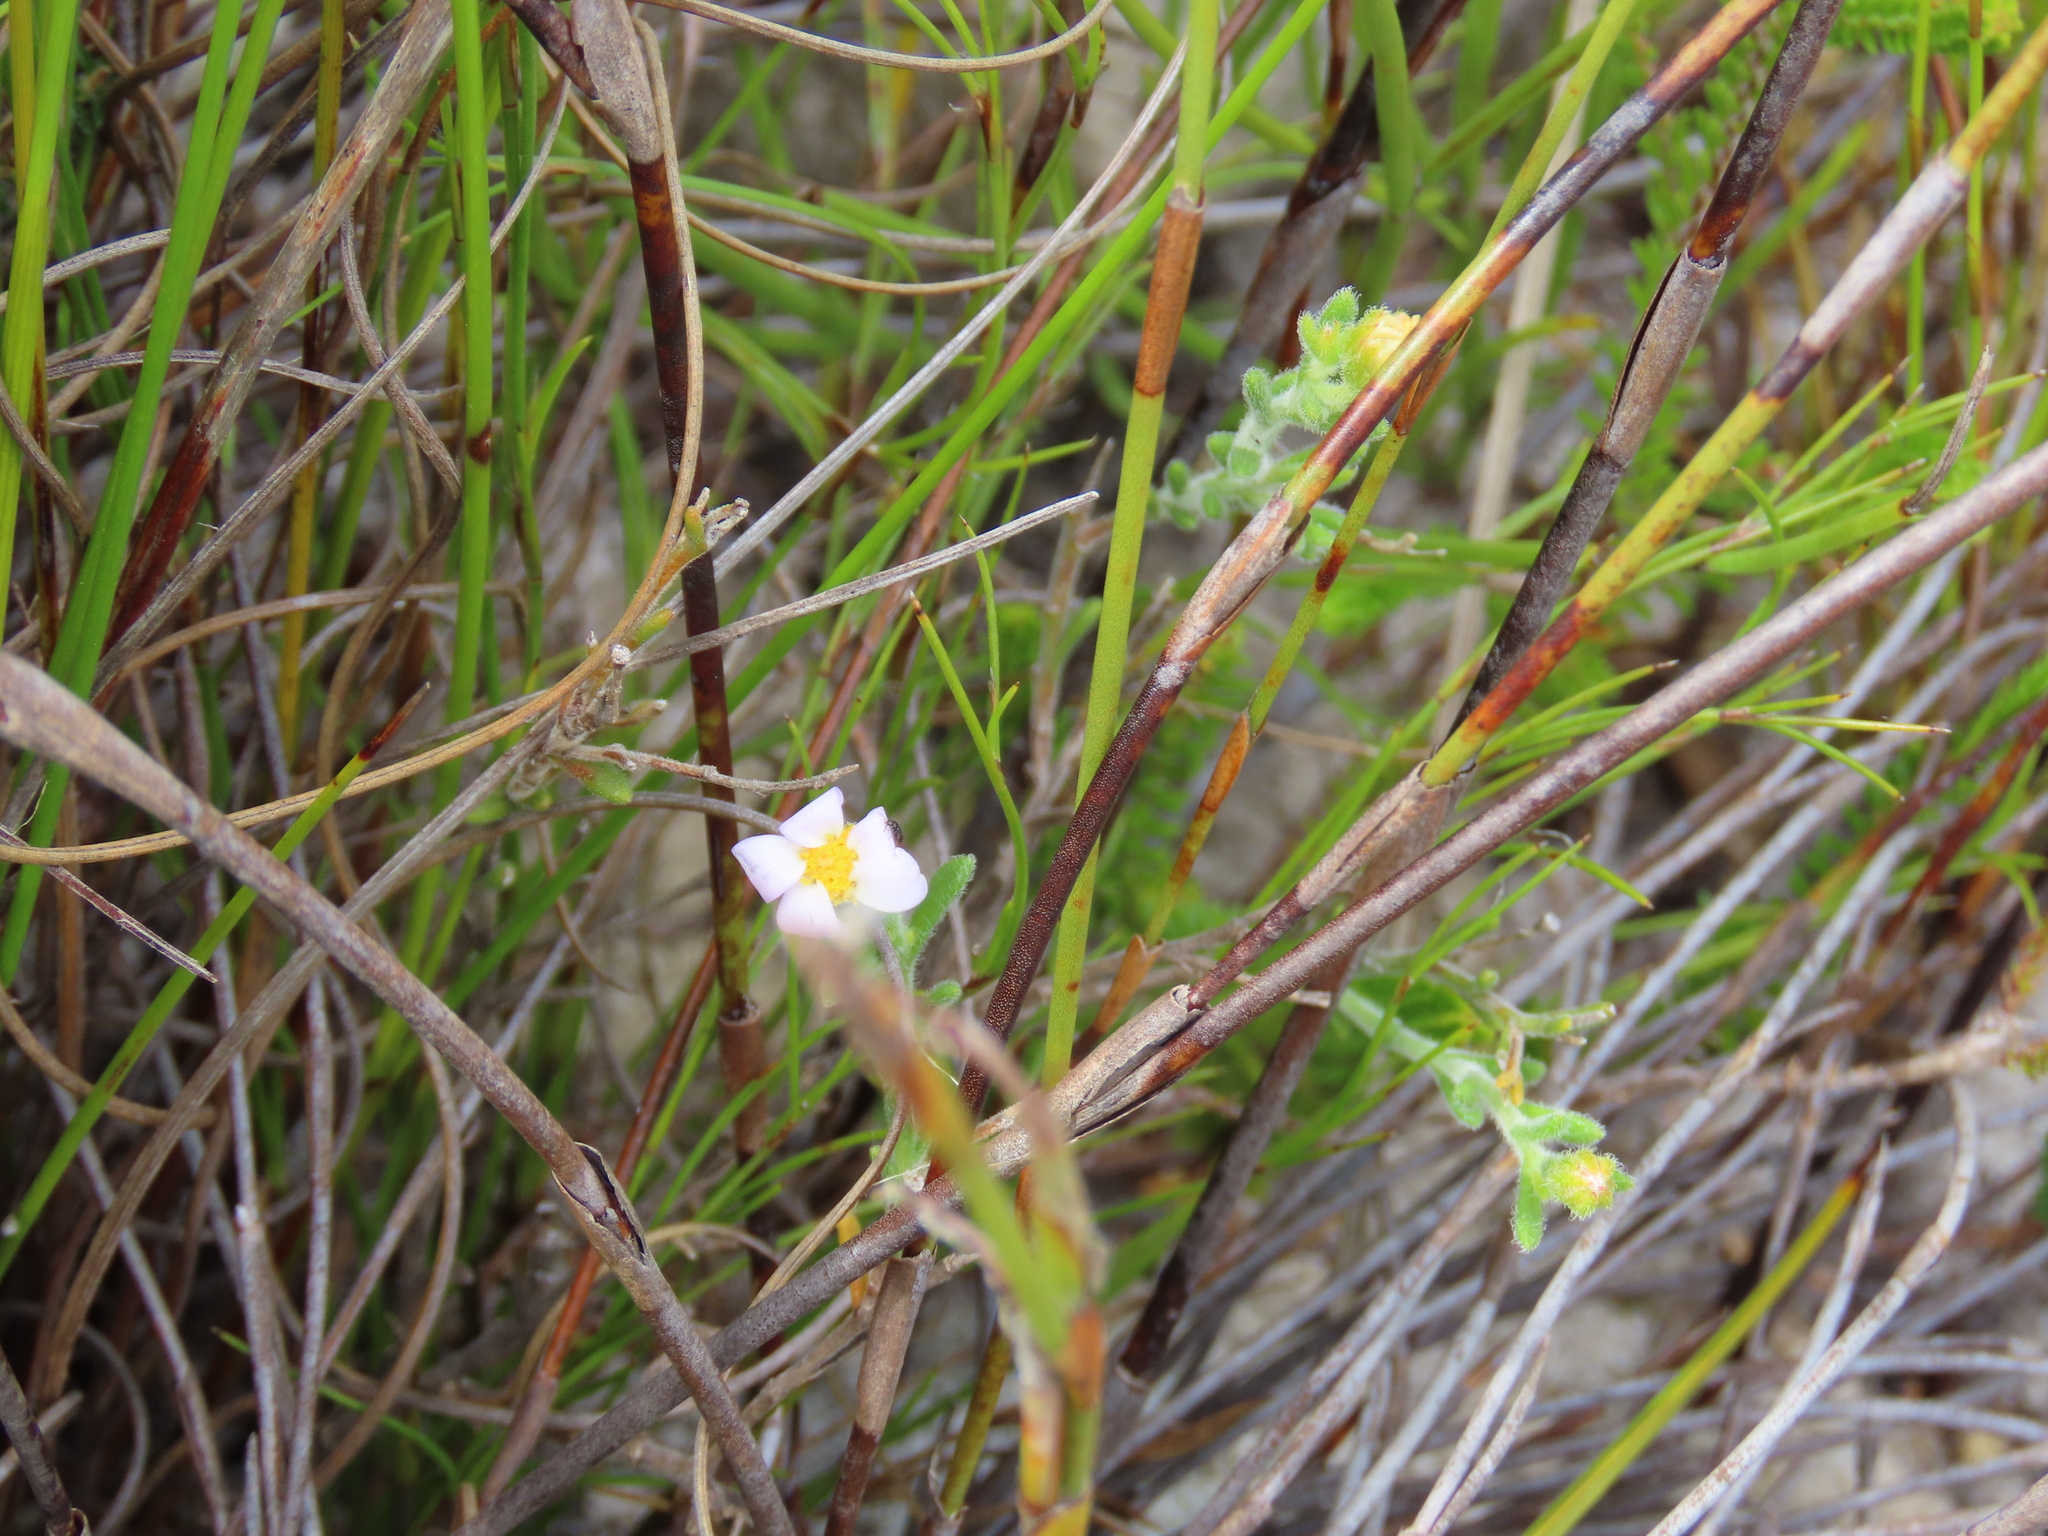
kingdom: Plantae
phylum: Tracheophyta
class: Magnoliopsida
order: Asterales
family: Asteraceae
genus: Zyrphelis
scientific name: Zyrphelis foliosa
